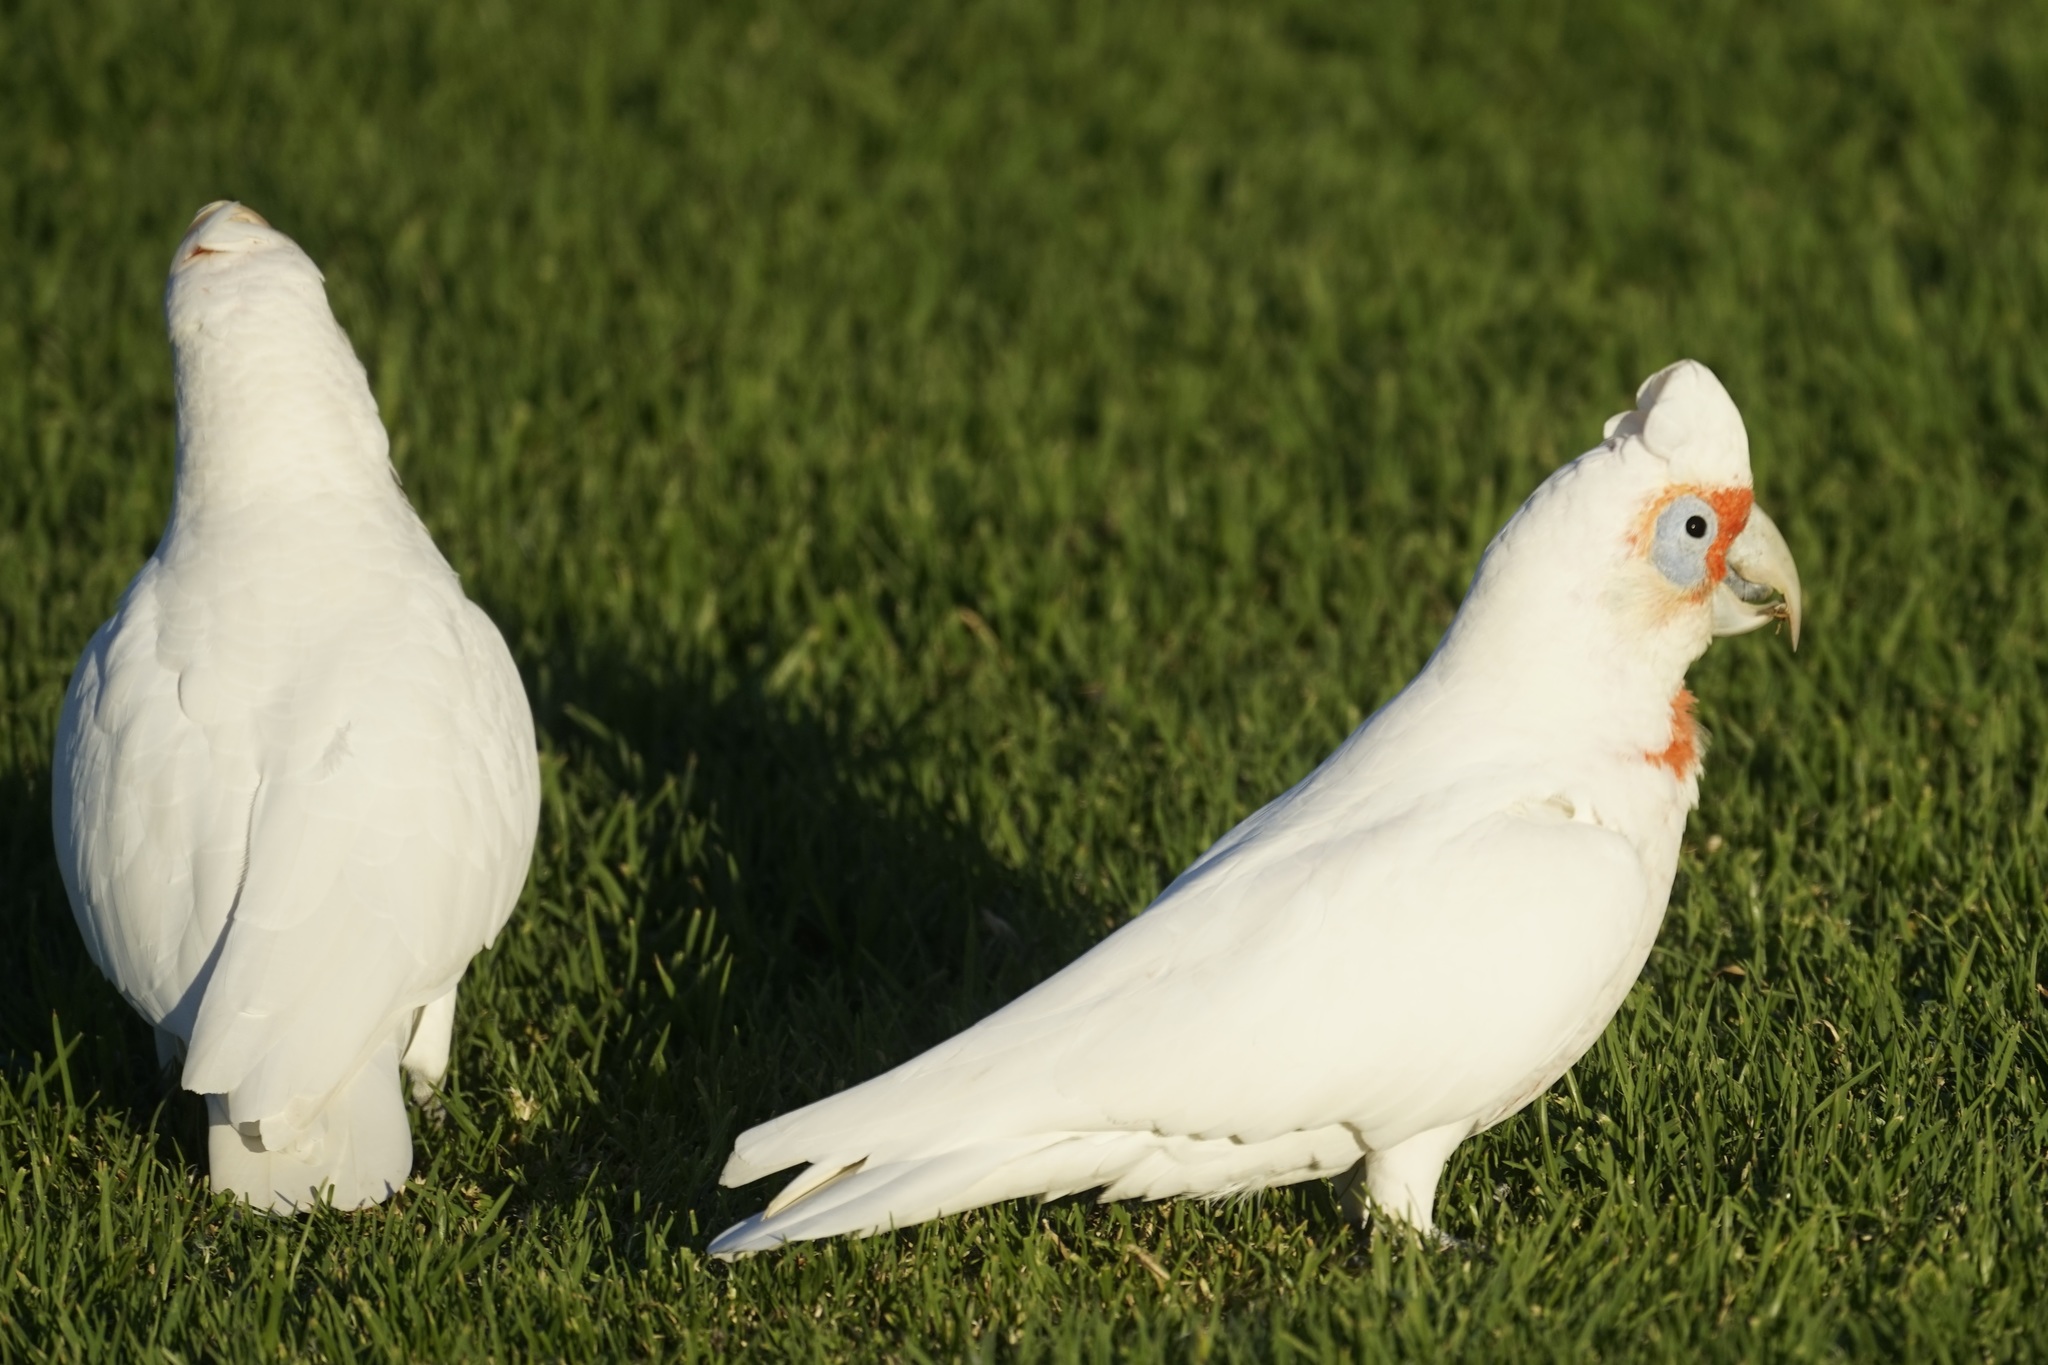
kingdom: Animalia
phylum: Chordata
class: Aves
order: Psittaciformes
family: Psittacidae
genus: Cacatua
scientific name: Cacatua tenuirostris
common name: Long-billed corella
